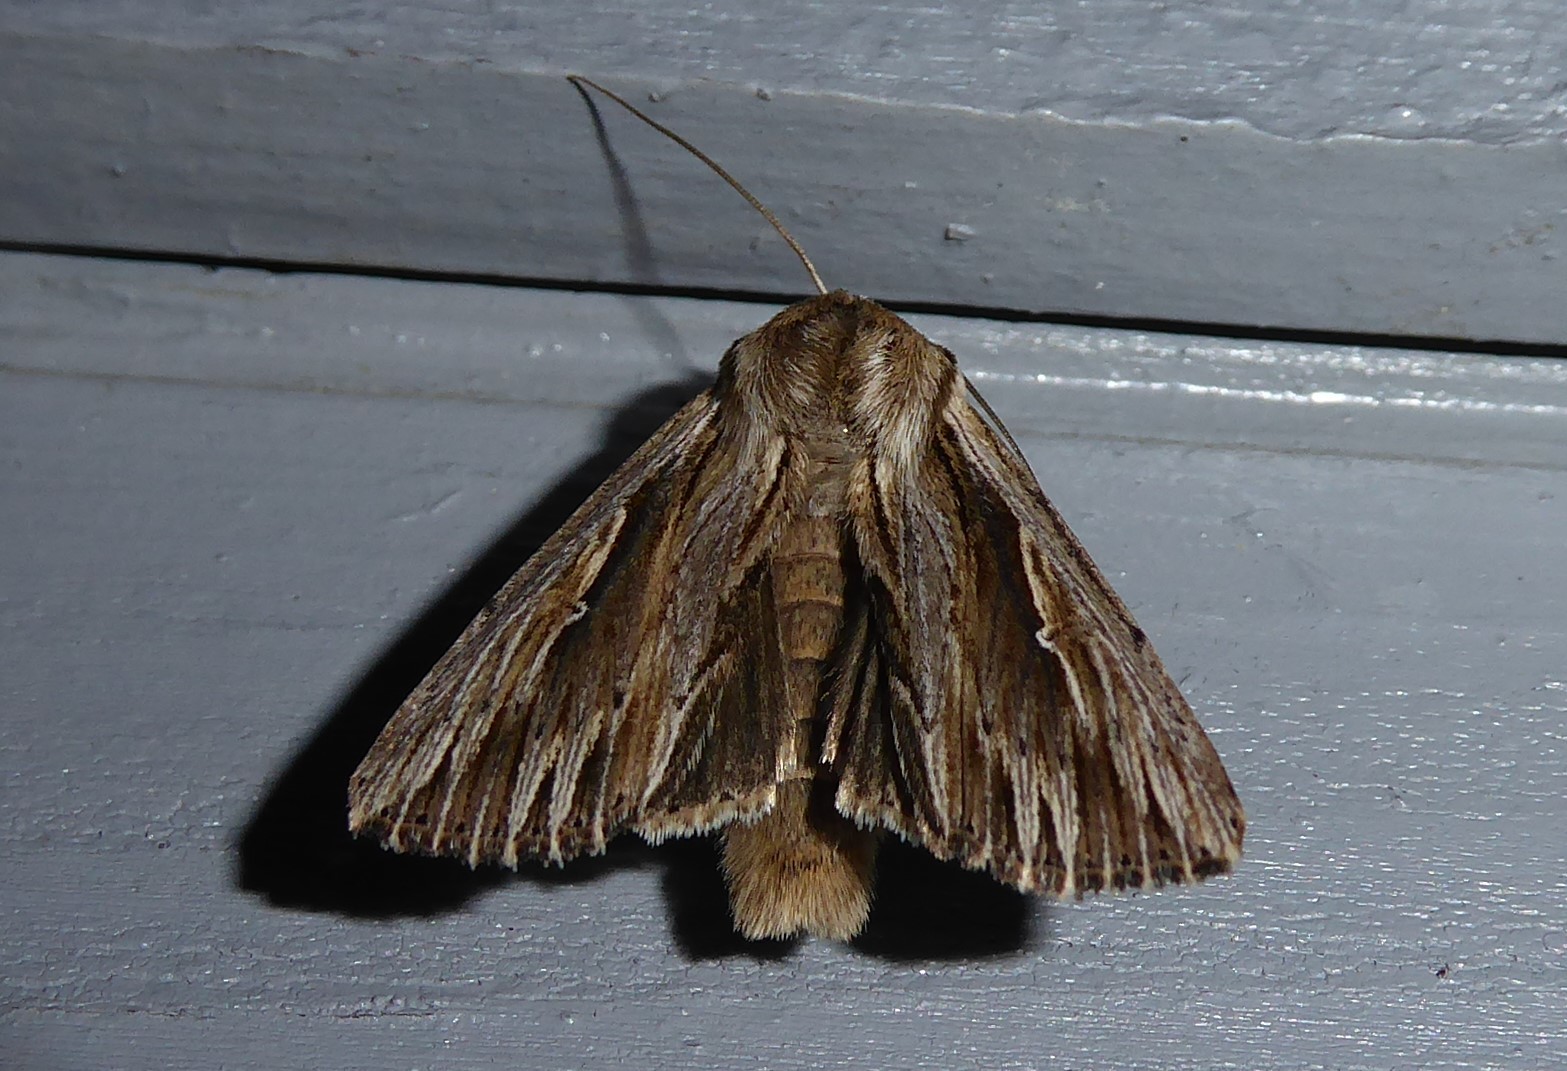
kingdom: Animalia
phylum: Arthropoda
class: Insecta
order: Lepidoptera
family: Noctuidae
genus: Persectania
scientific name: Persectania aversa
